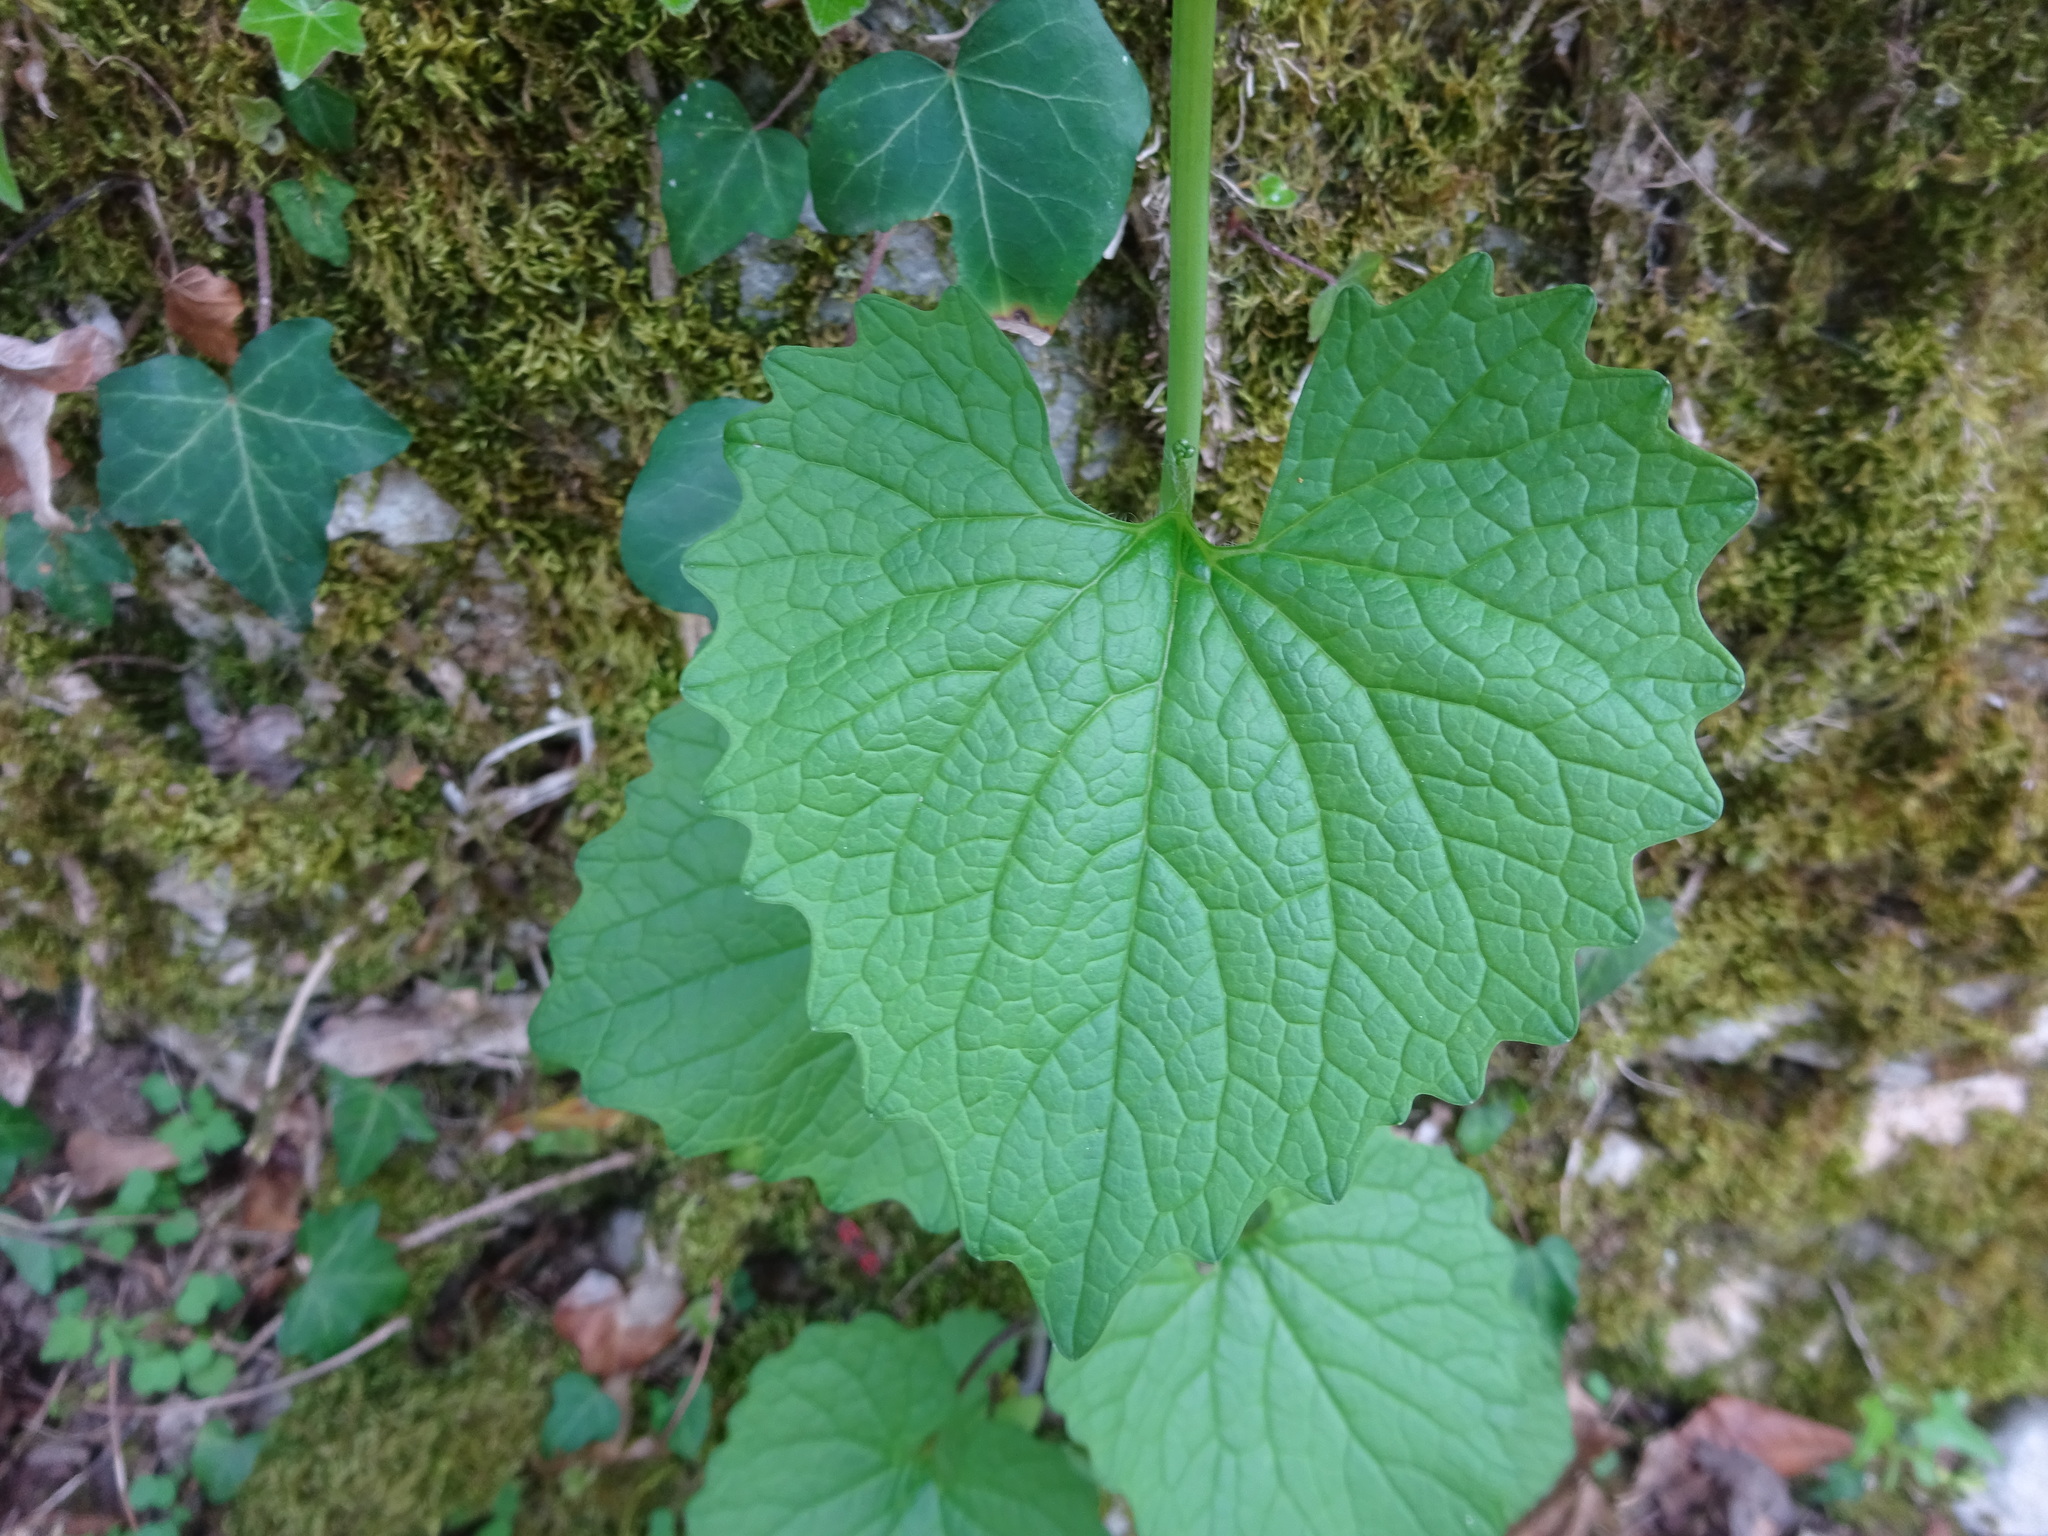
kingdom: Plantae
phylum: Tracheophyta
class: Magnoliopsida
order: Brassicales
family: Brassicaceae
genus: Alliaria
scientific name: Alliaria petiolata
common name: Garlic mustard
